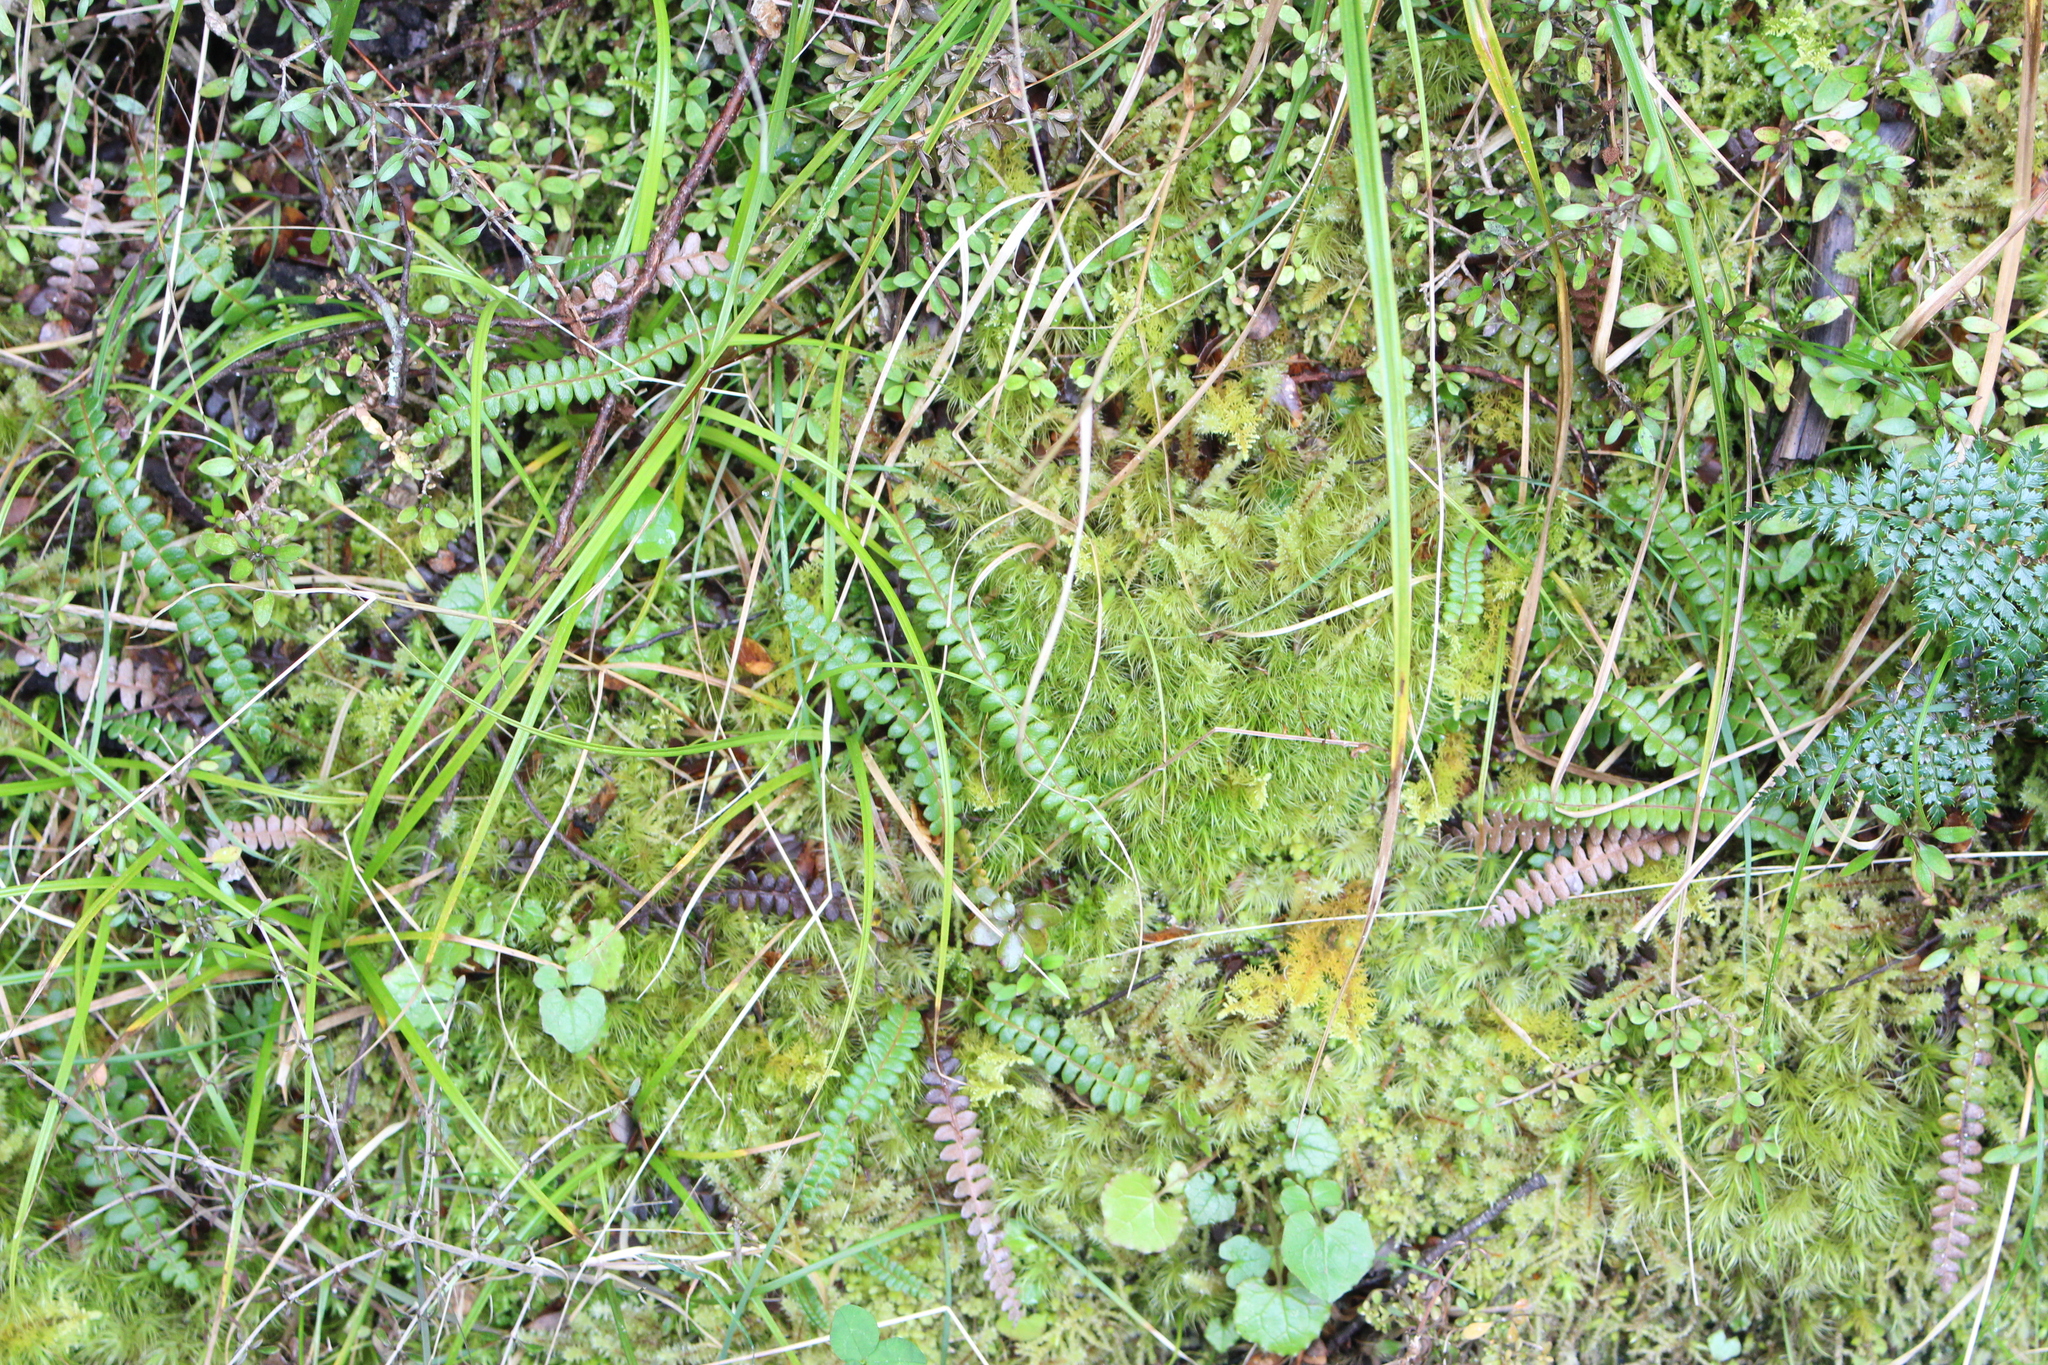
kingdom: Plantae
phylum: Tracheophyta
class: Polypodiopsida
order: Polypodiales
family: Blechnaceae
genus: Austroblechnum
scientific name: Austroblechnum penna-marina
